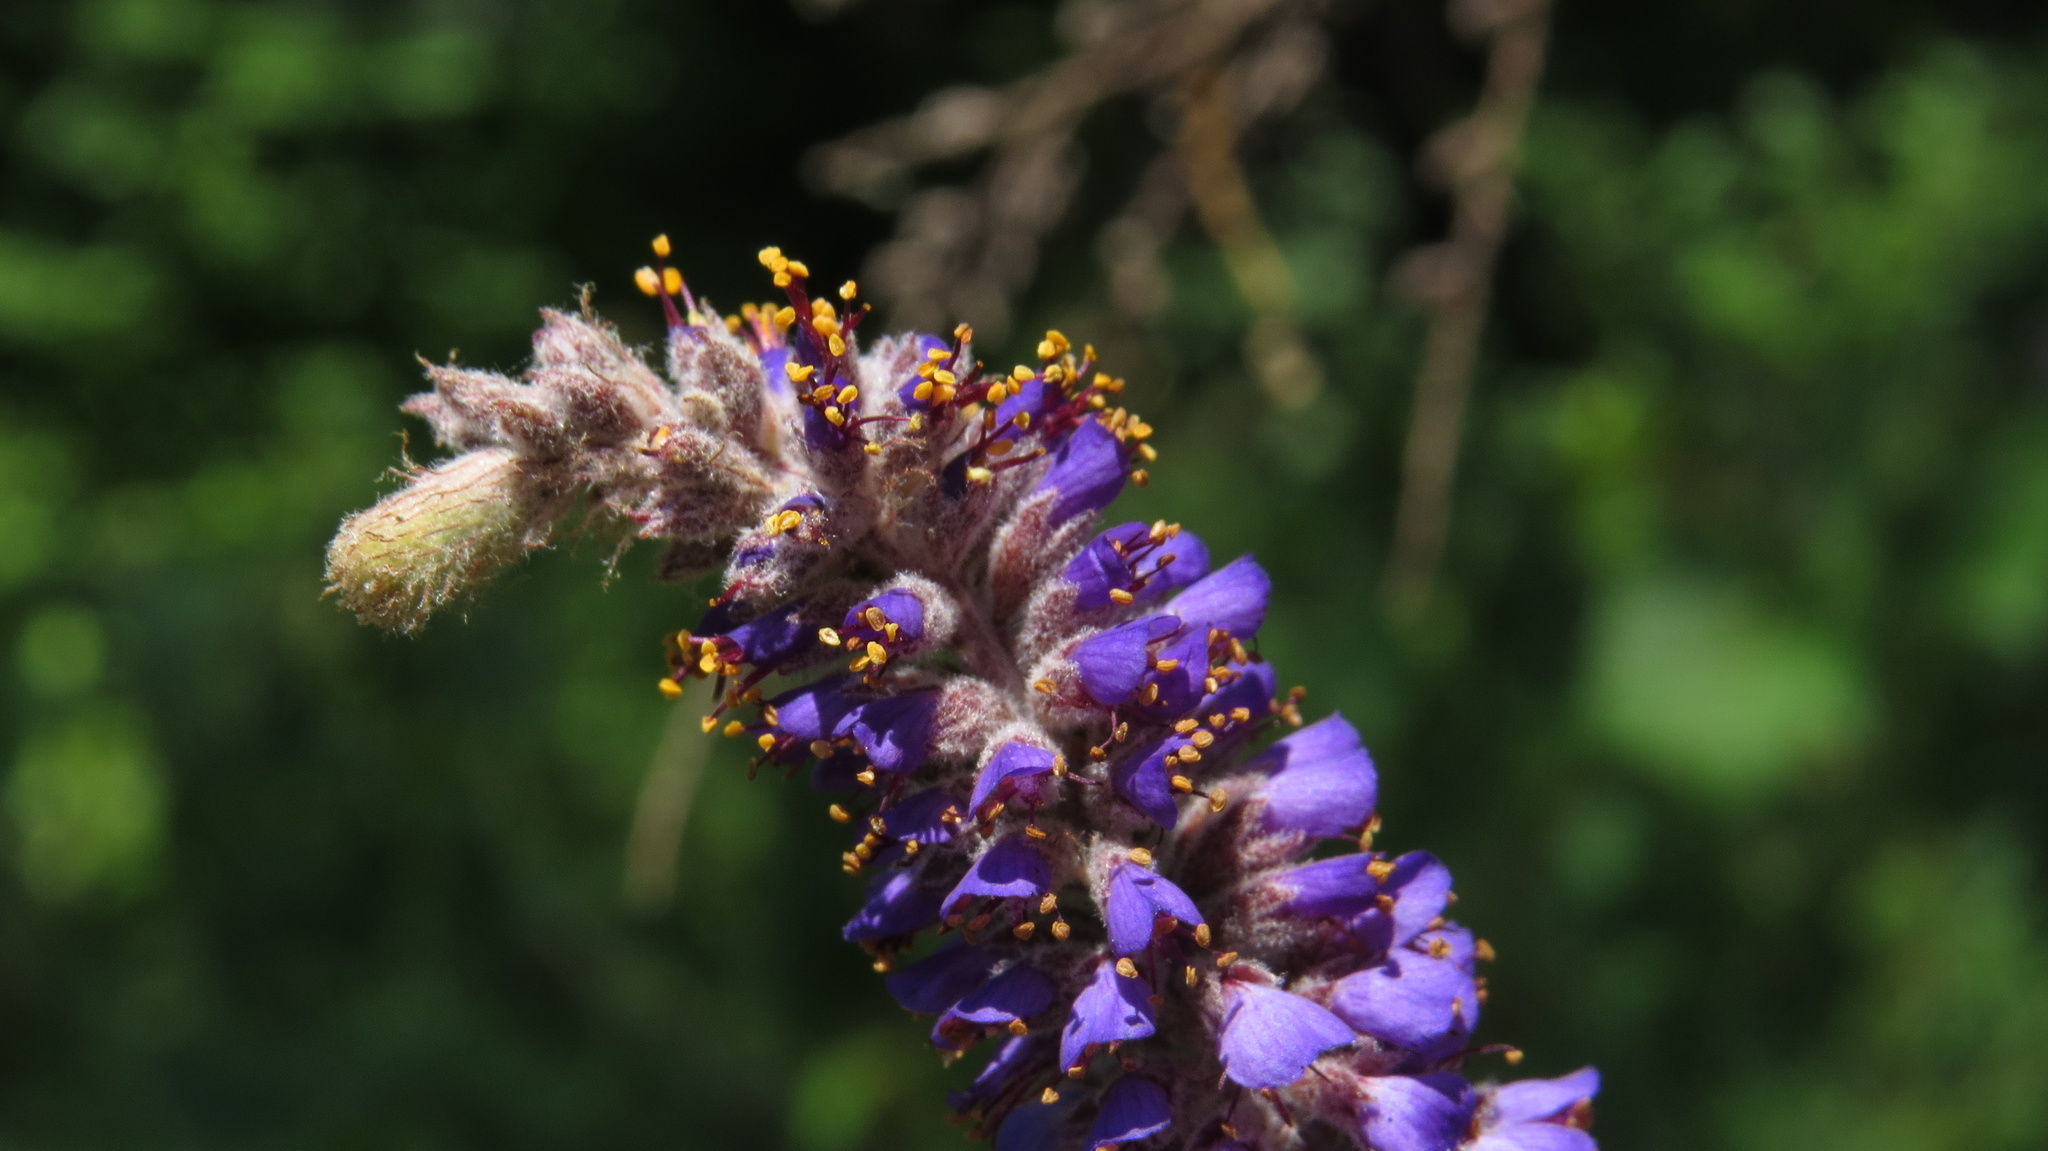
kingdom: Plantae
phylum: Tracheophyta
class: Magnoliopsida
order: Fabales
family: Fabaceae
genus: Amorpha
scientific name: Amorpha canescens
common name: Leadplant
